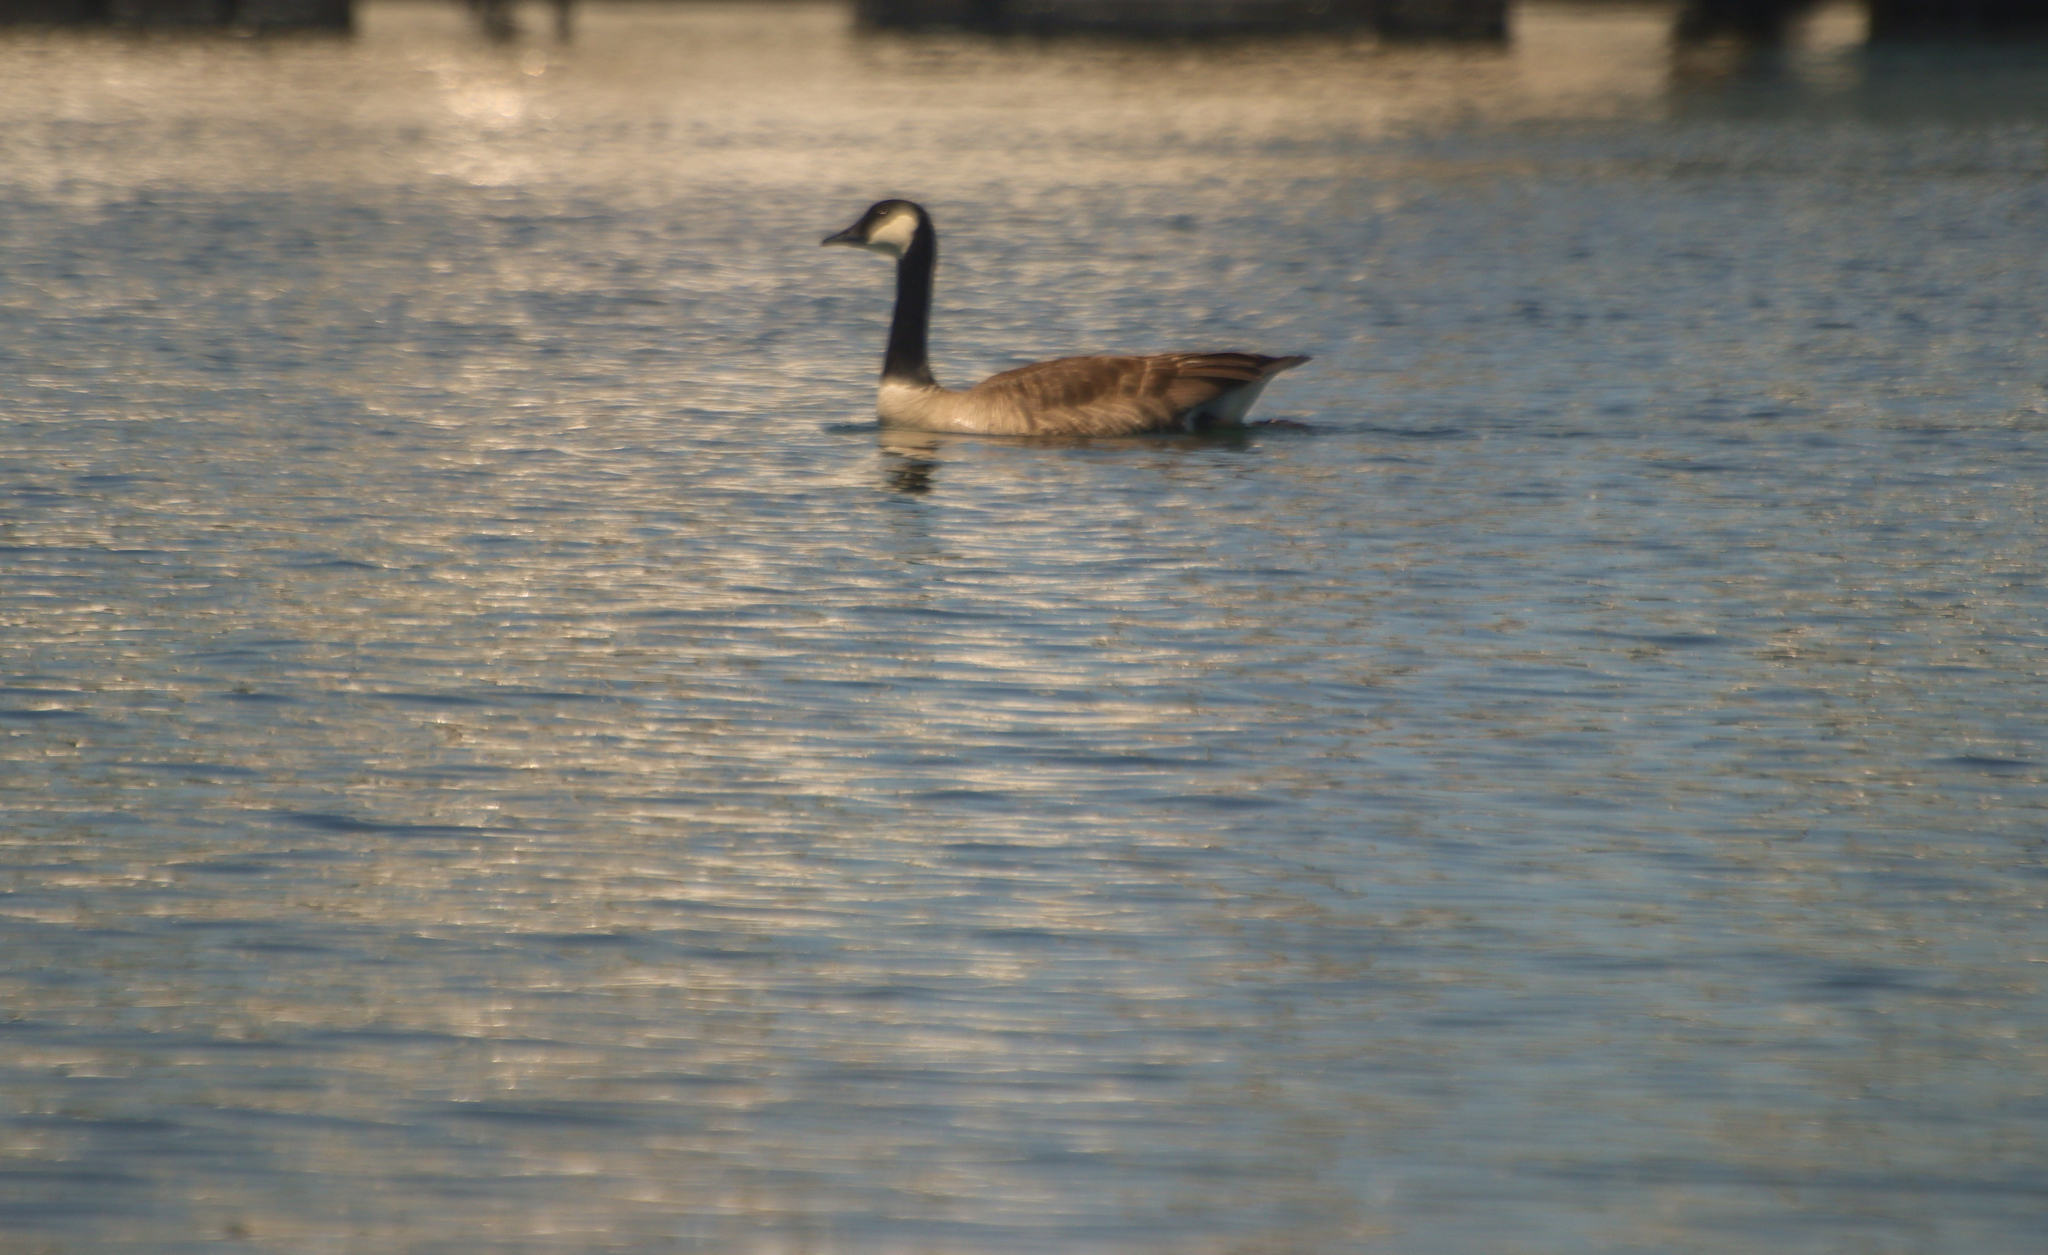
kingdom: Animalia
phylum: Chordata
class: Aves
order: Anseriformes
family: Anatidae
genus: Branta
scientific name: Branta canadensis
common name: Canada goose
